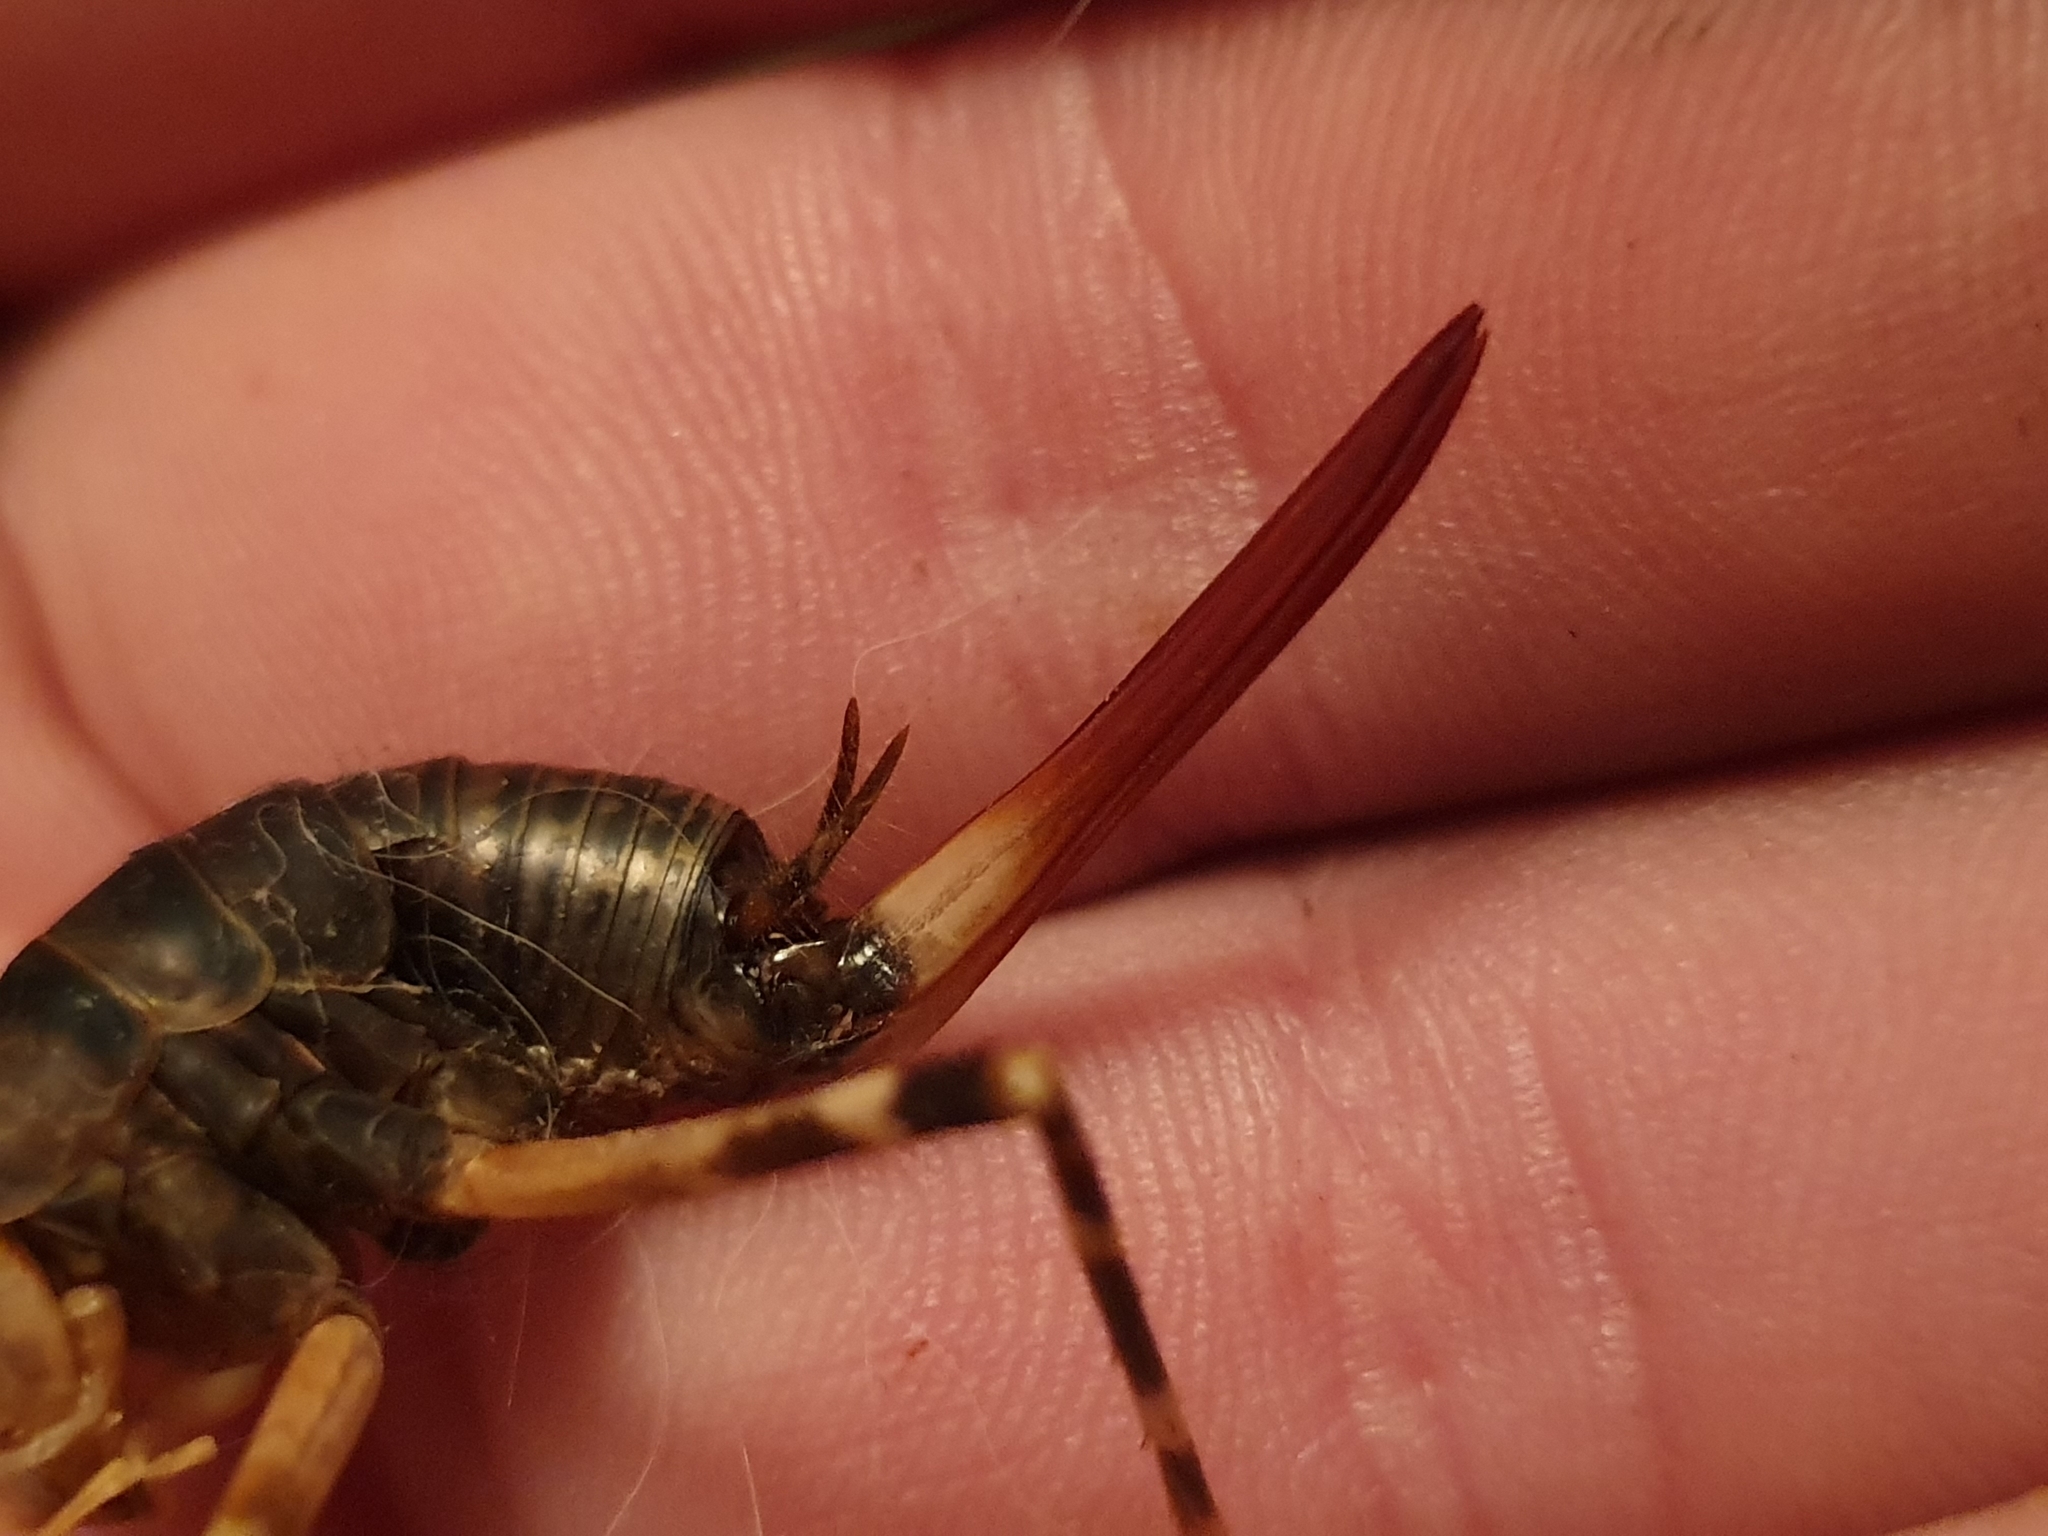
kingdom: Animalia
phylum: Arthropoda
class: Insecta
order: Orthoptera
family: Rhaphidophoridae
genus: Pachyrhamma
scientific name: Pachyrhamma edwardsii
